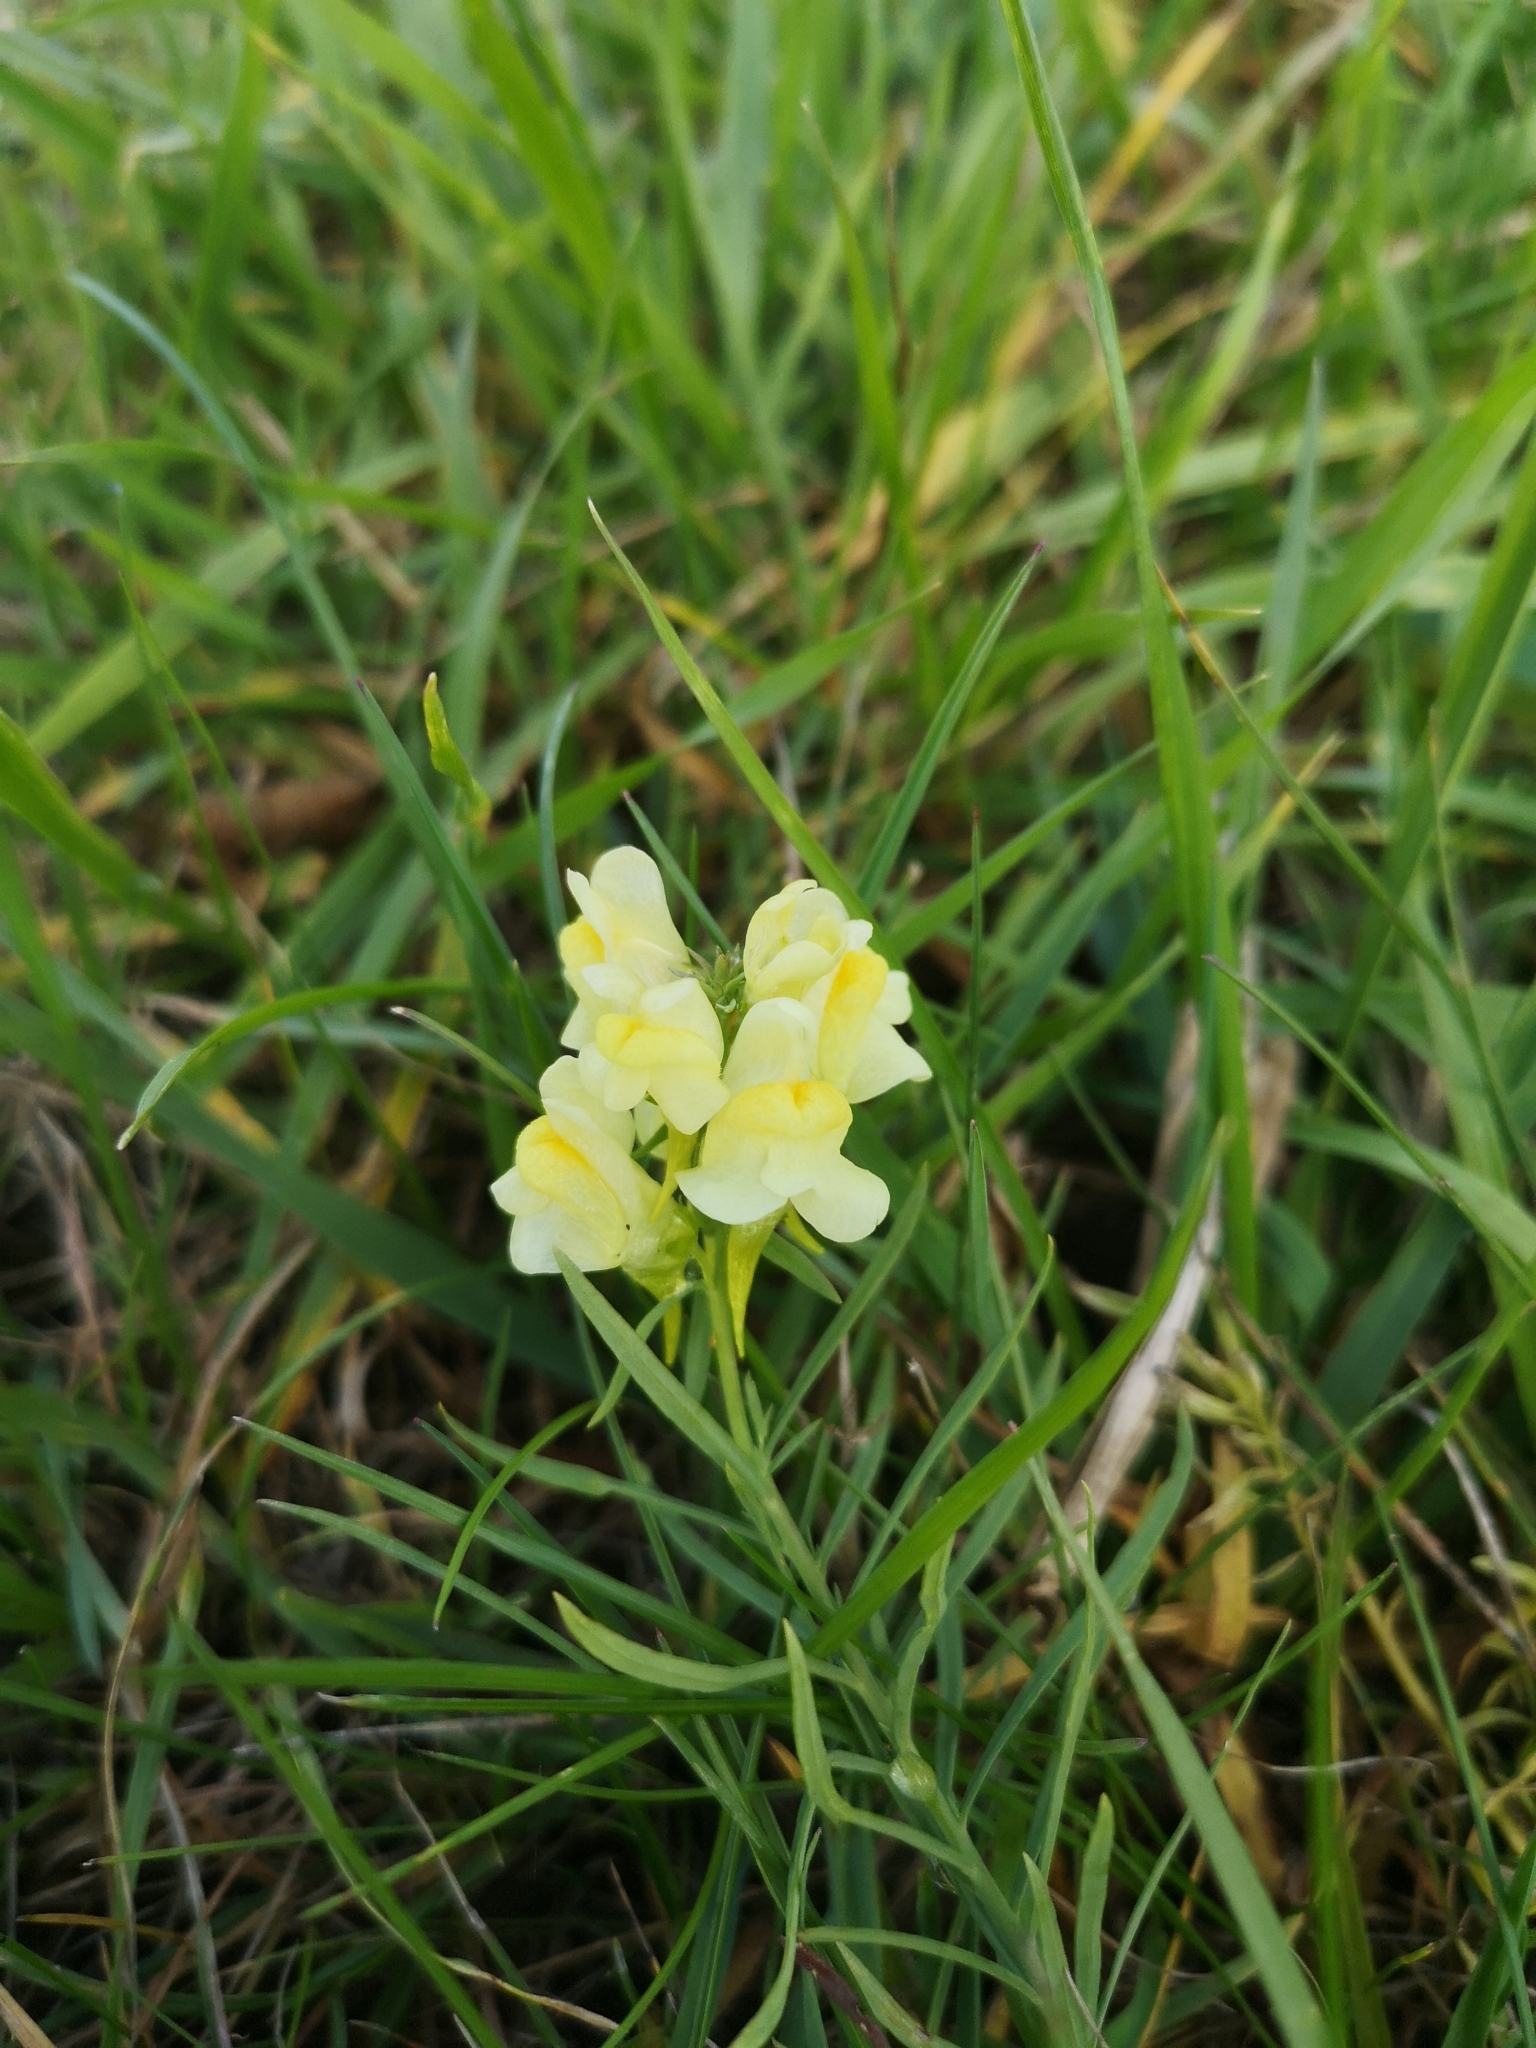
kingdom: Plantae
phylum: Tracheophyta
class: Magnoliopsida
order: Lamiales
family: Plantaginaceae
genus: Linaria
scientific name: Linaria vulgaris
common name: Butter and eggs
